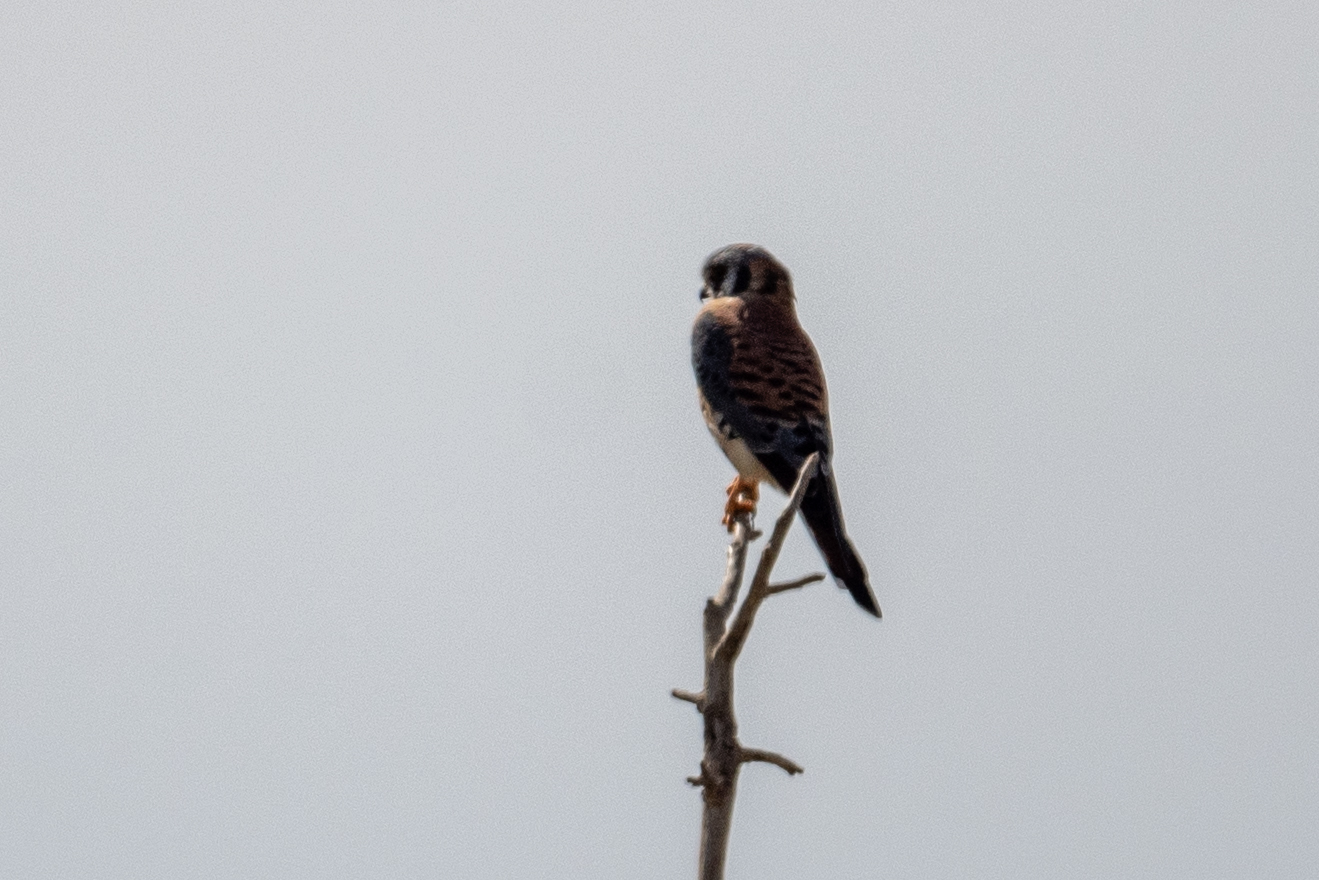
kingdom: Animalia
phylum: Chordata
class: Aves
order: Falconiformes
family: Falconidae
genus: Falco
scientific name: Falco sparverius
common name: American kestrel
